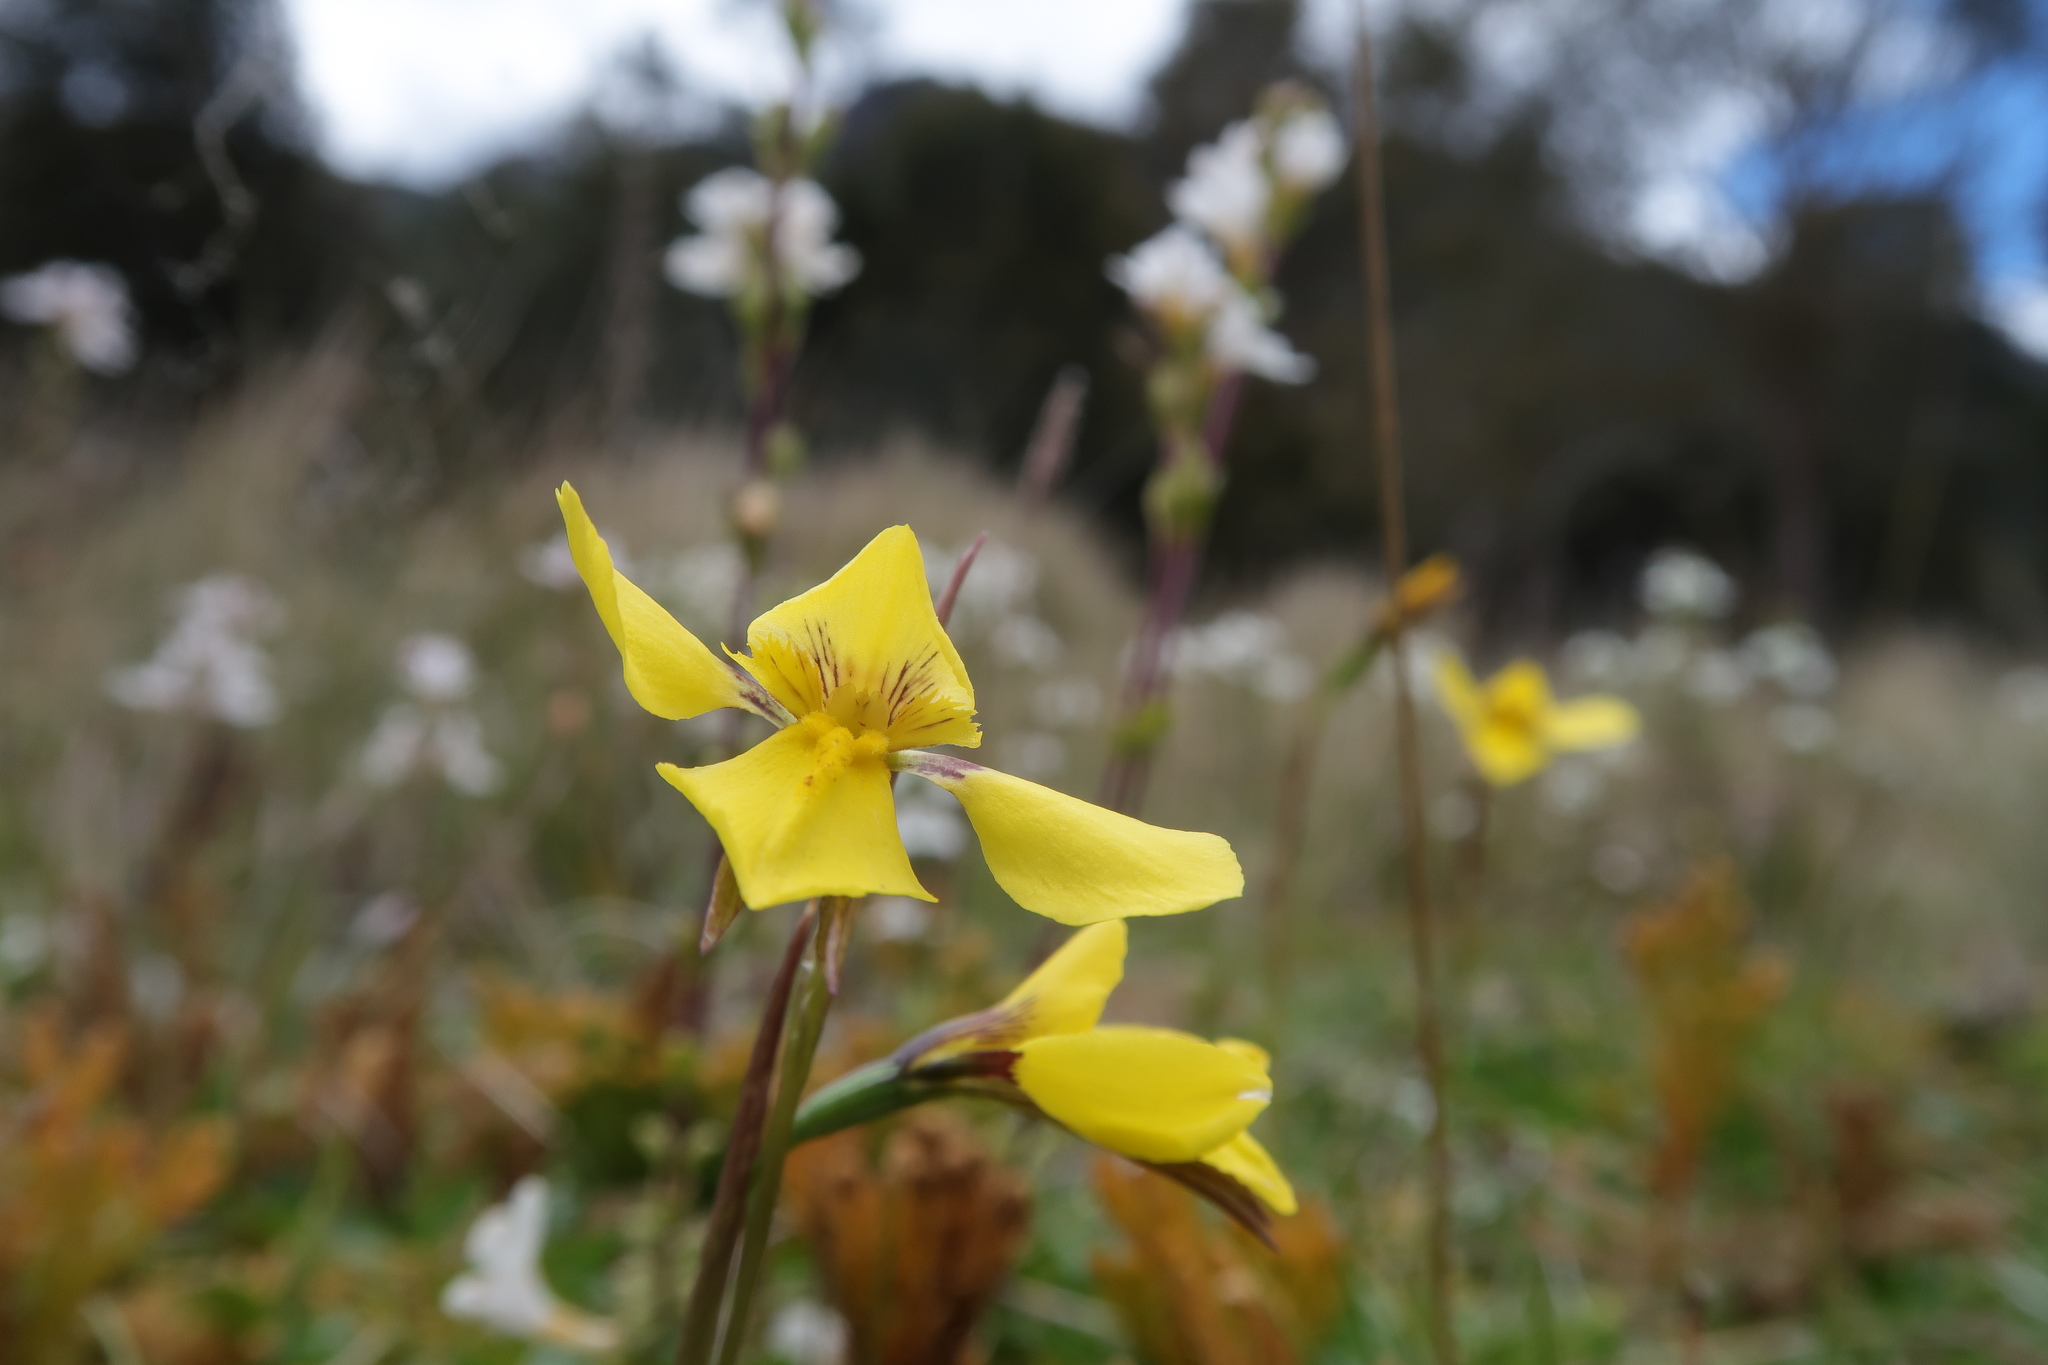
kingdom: Plantae
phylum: Tracheophyta
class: Liliopsida
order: Asparagales
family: Orchidaceae
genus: Diuris
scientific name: Diuris monticola
